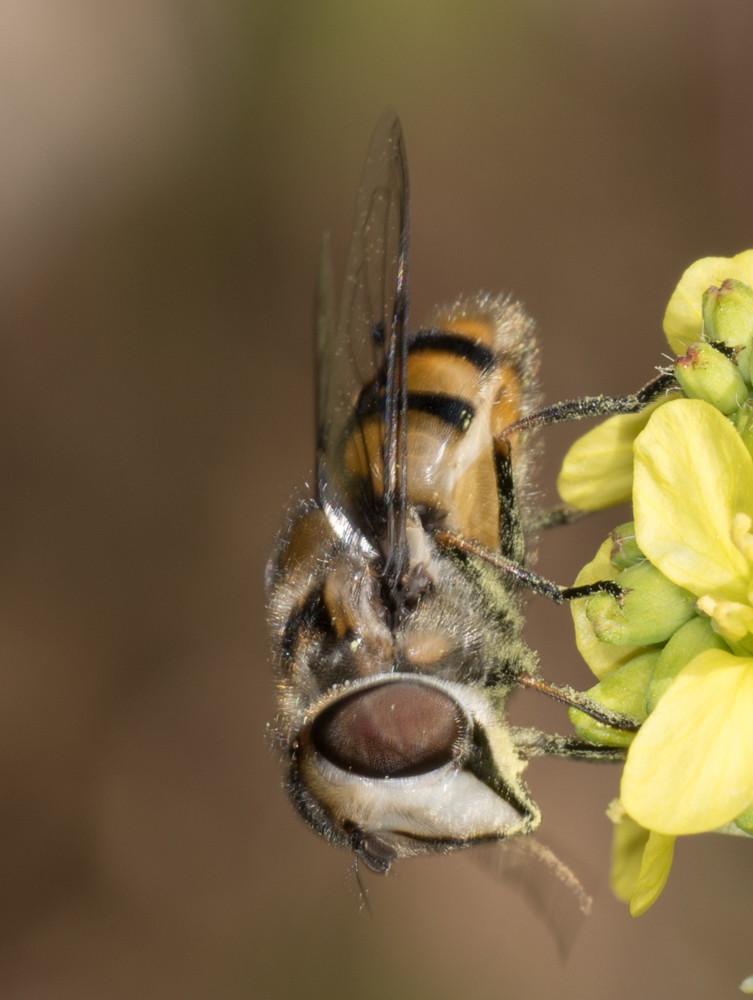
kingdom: Animalia
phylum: Arthropoda
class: Insecta
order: Diptera
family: Syrphidae
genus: Copestylum
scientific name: Copestylum avidum
